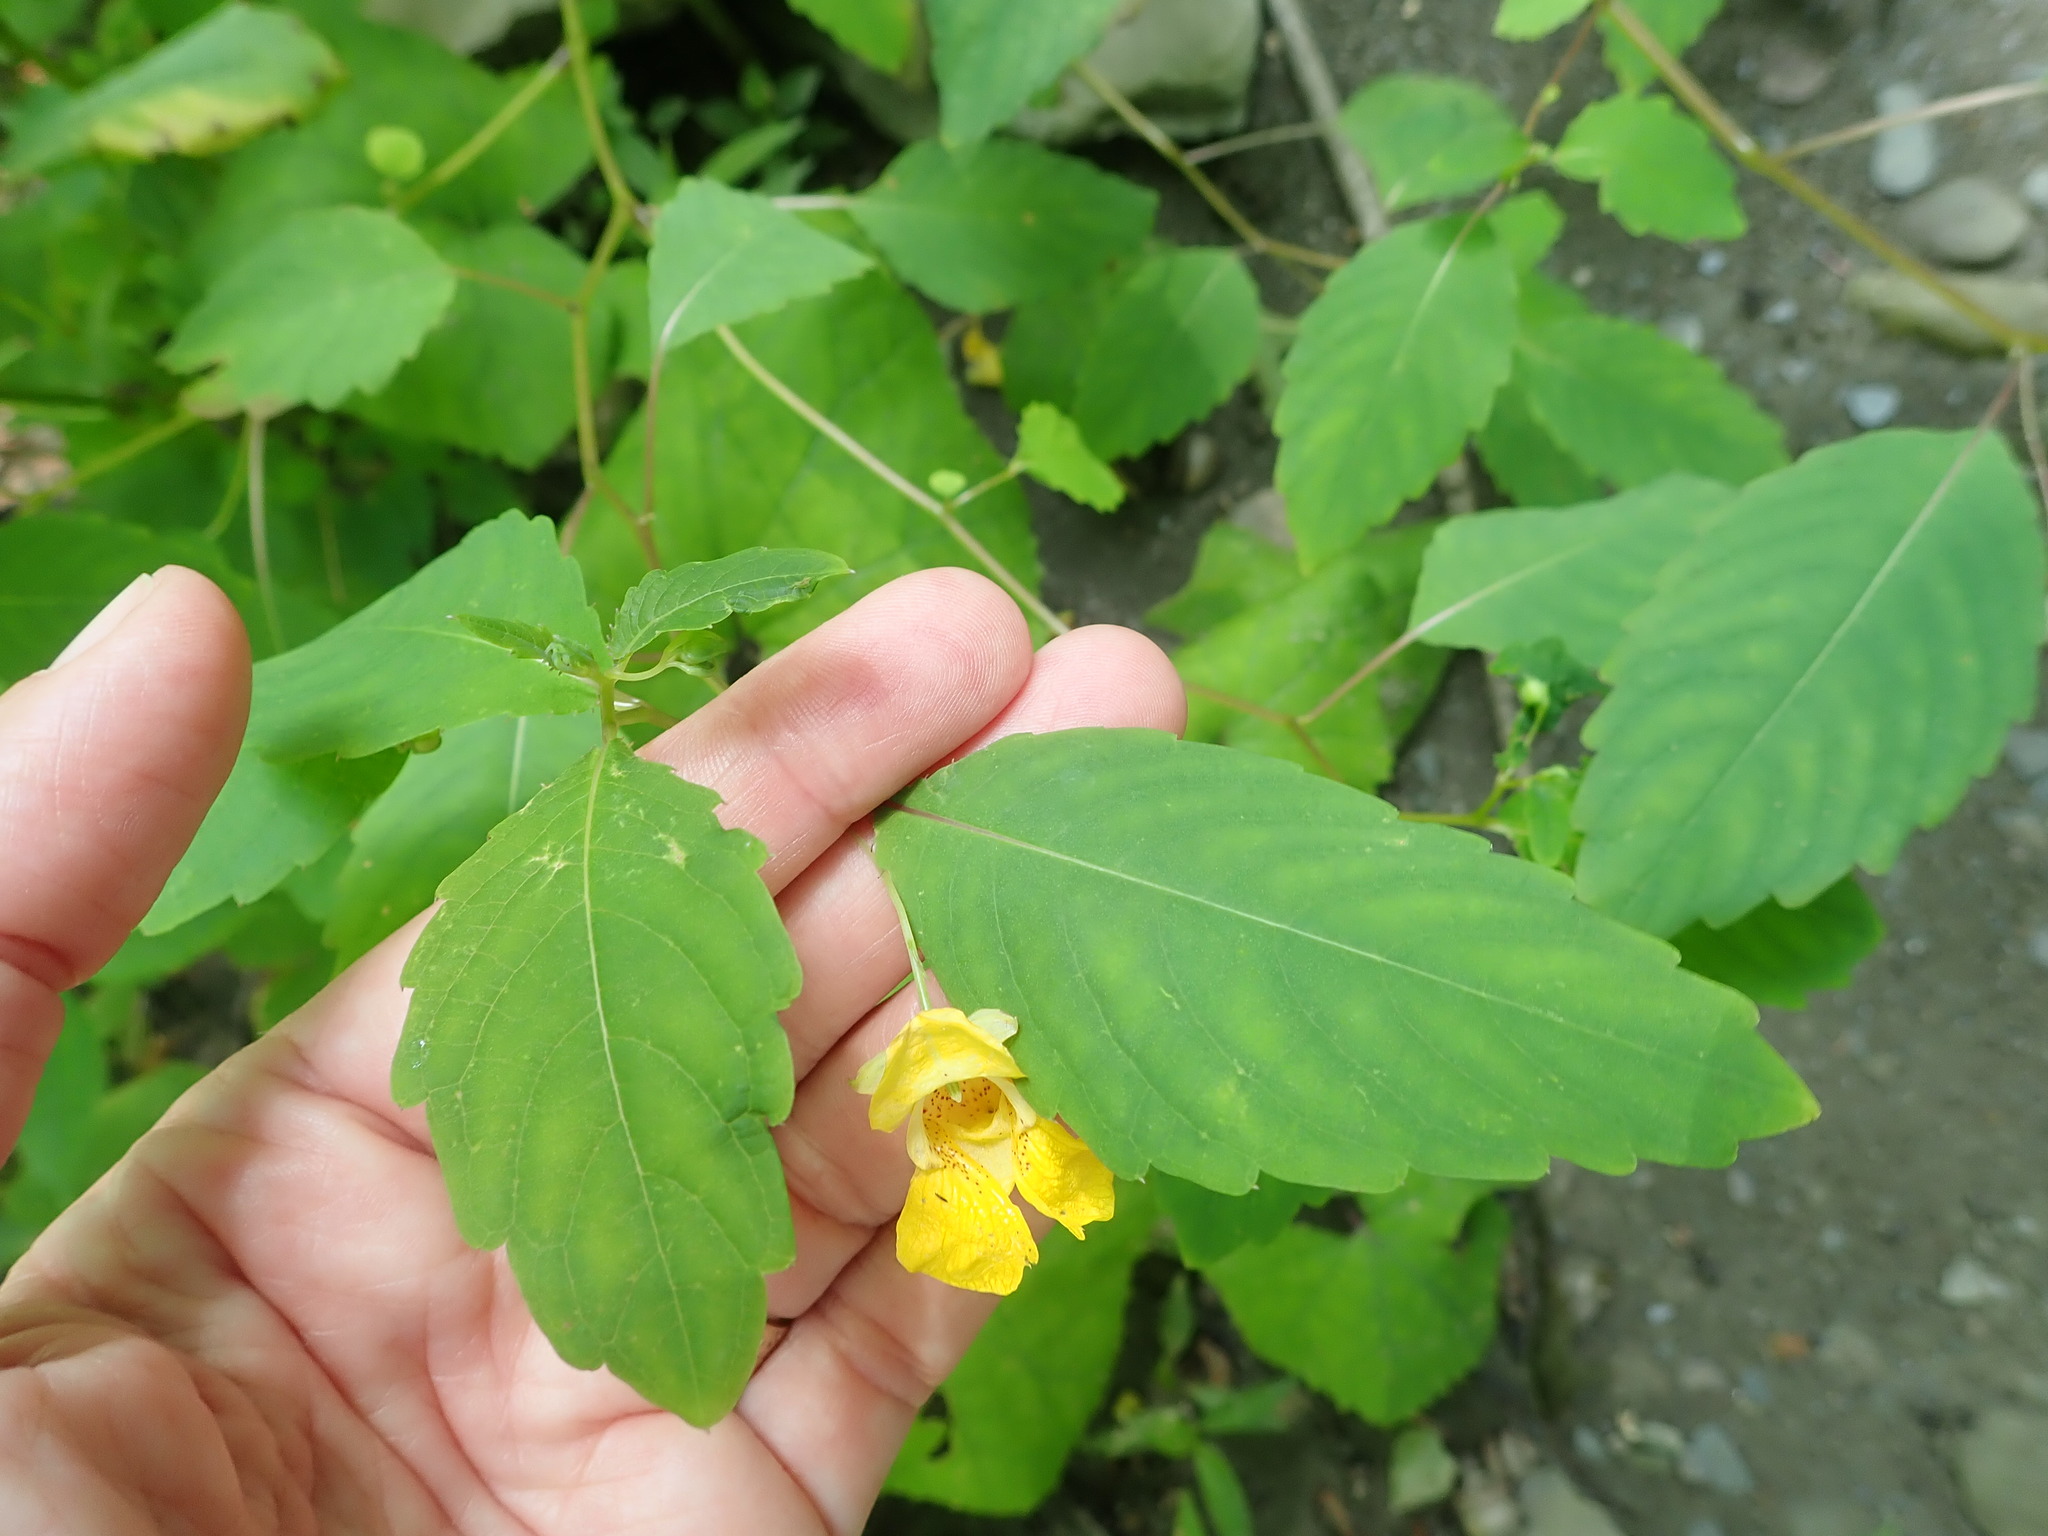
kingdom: Plantae
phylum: Tracheophyta
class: Magnoliopsida
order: Ericales
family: Balsaminaceae
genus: Impatiens
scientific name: Impatiens pallida
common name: Pale snapweed
